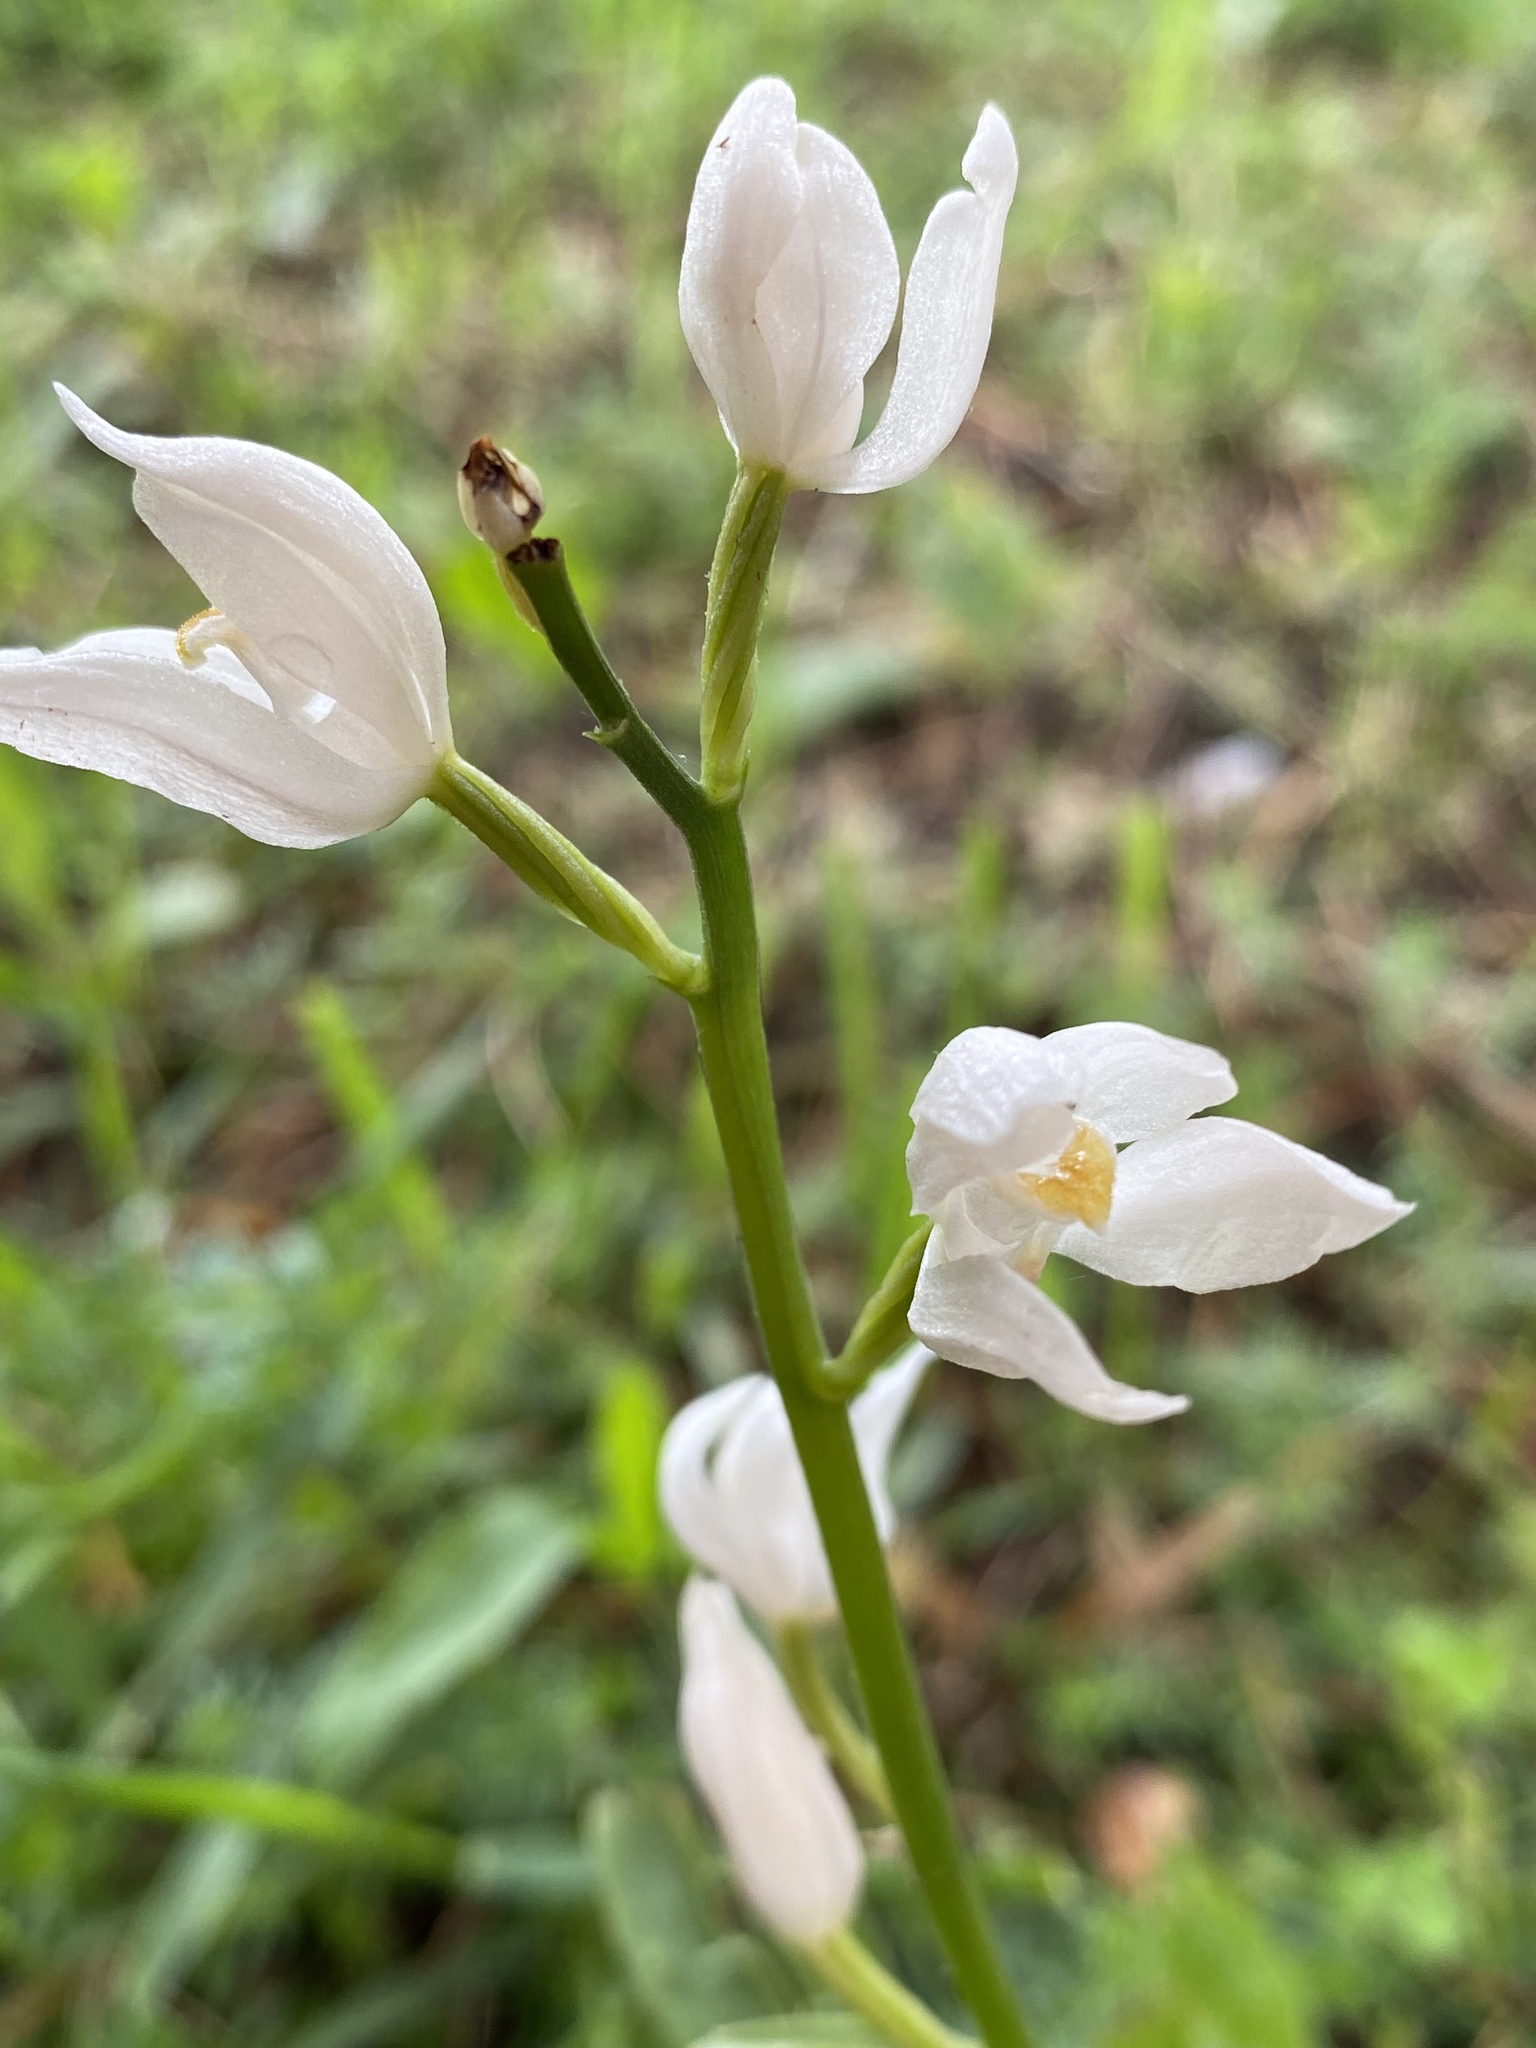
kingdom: Plantae
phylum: Tracheophyta
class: Liliopsida
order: Asparagales
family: Orchidaceae
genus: Cephalanthera
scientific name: Cephalanthera longifolia
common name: Narrow-leaved helleborine
